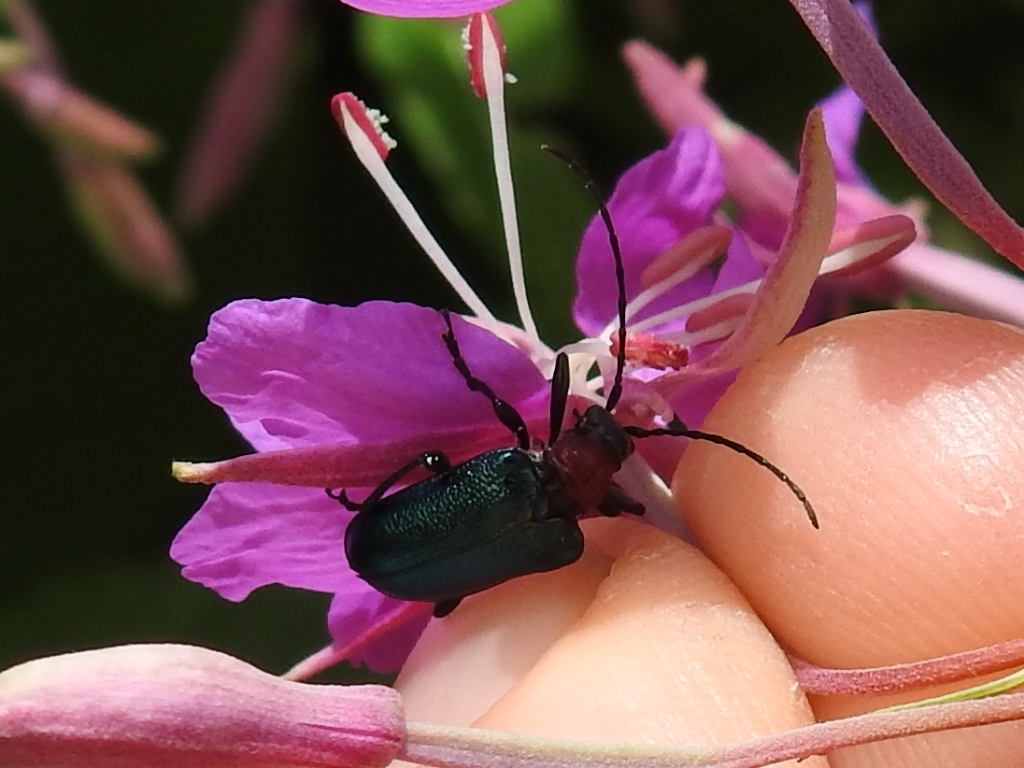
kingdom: Animalia
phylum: Arthropoda
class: Insecta
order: Coleoptera
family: Cerambycidae
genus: Gaurotes
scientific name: Gaurotes virginea
